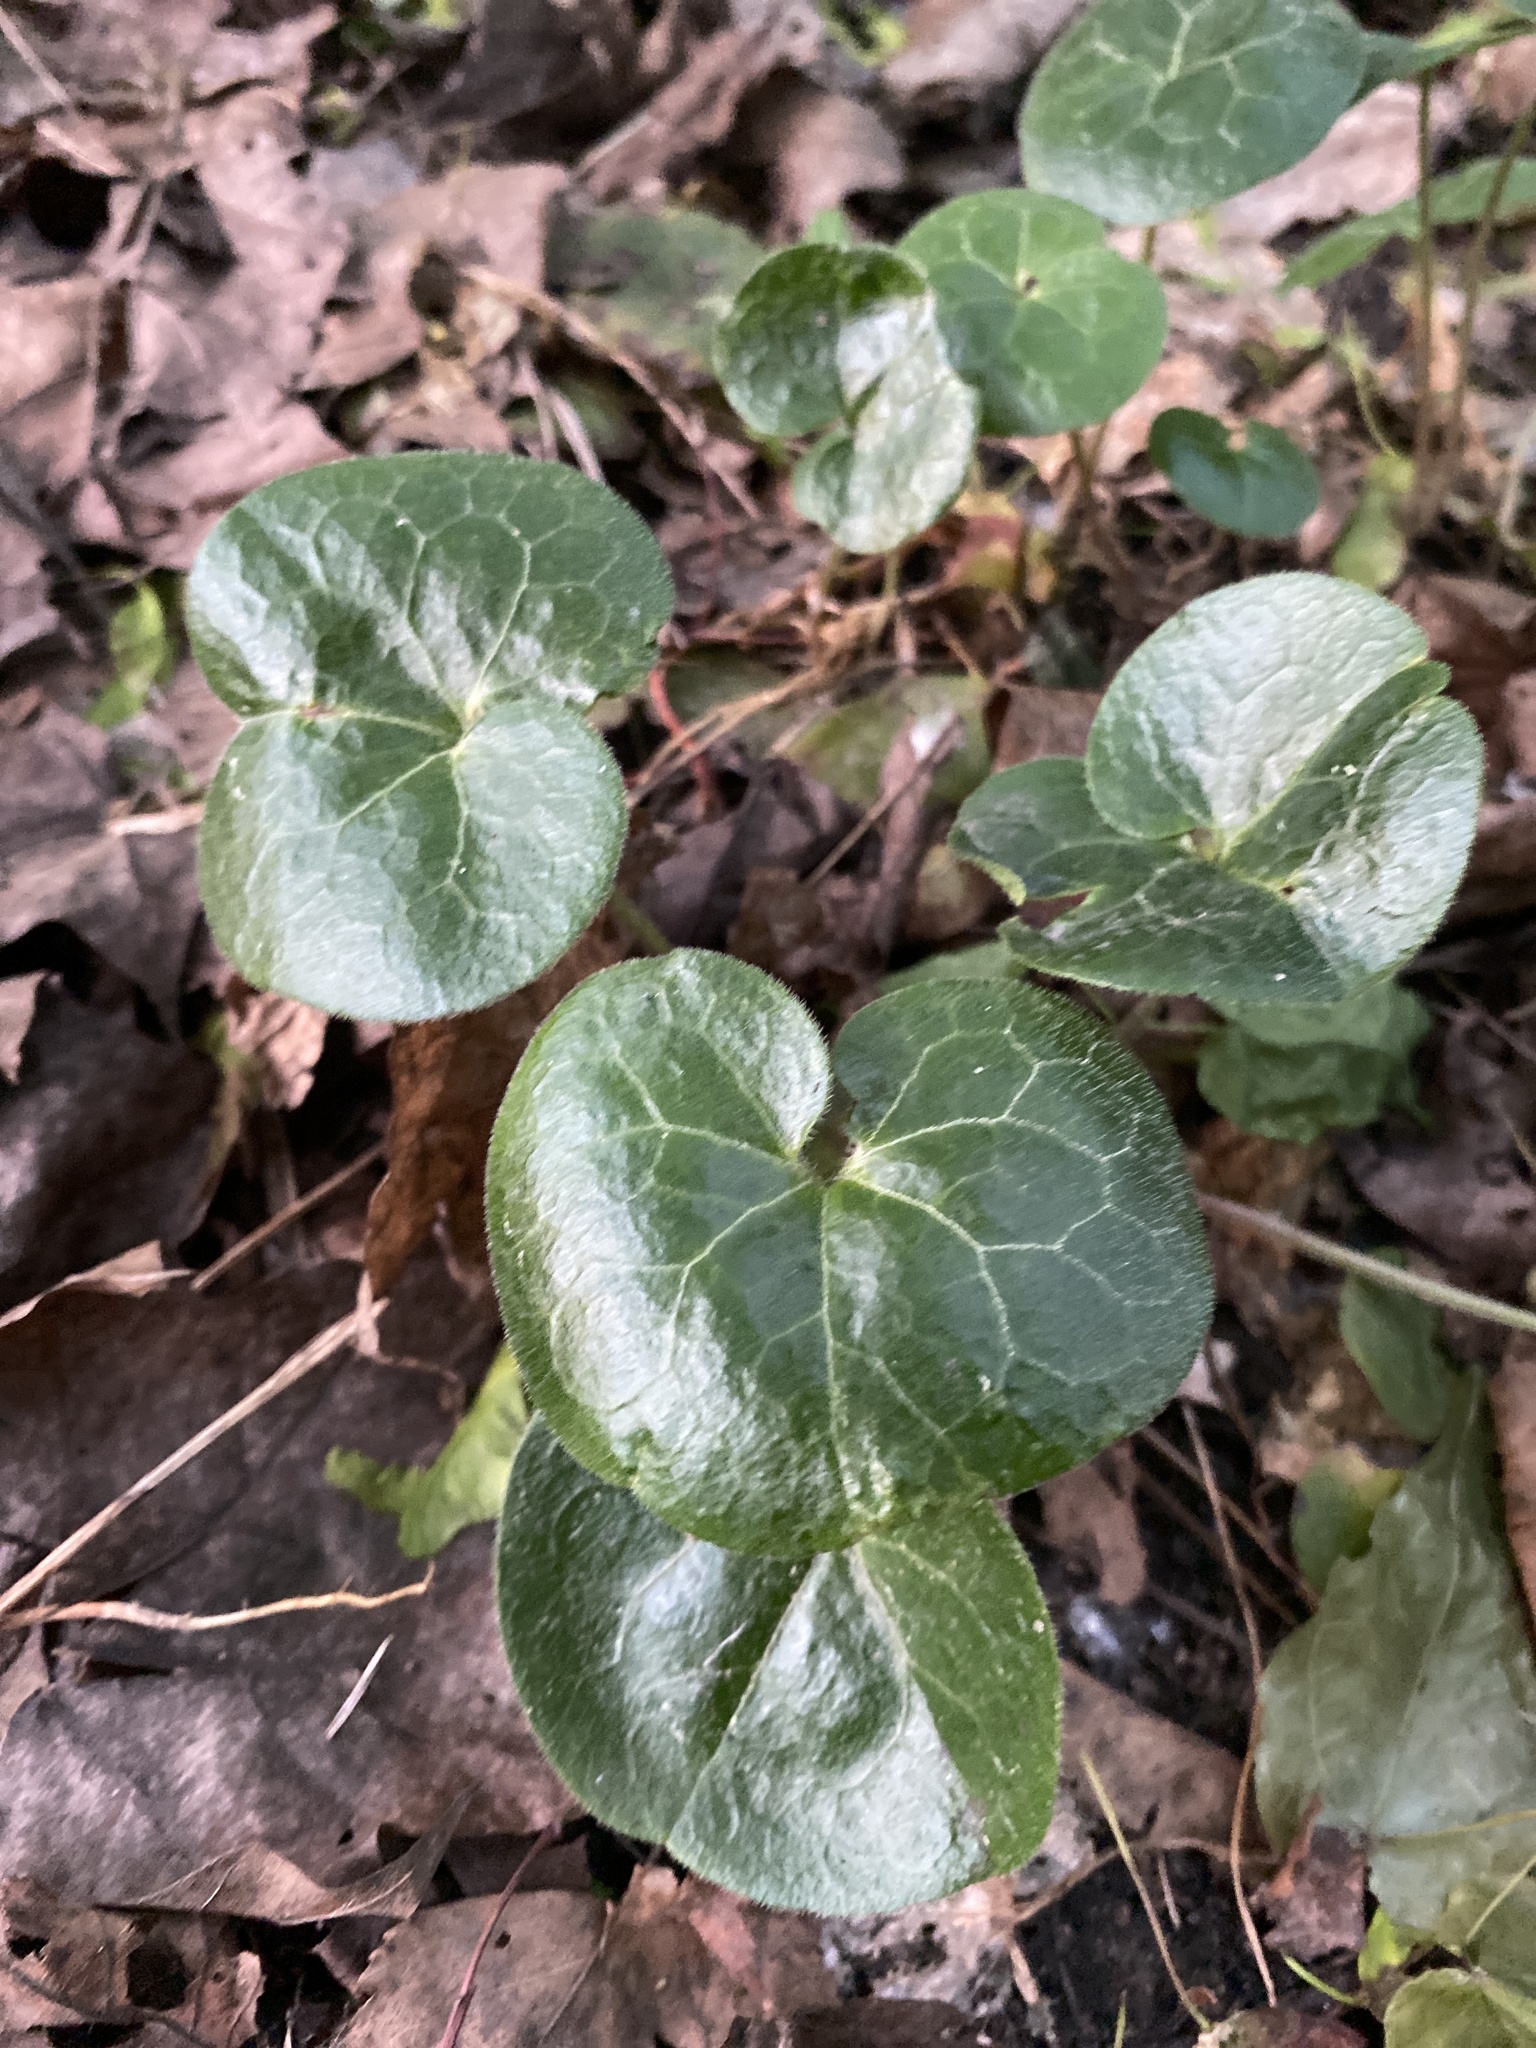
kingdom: Plantae
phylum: Tracheophyta
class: Magnoliopsida
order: Piperales
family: Aristolochiaceae
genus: Asarum
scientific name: Asarum europaeum
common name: Asarabacca
